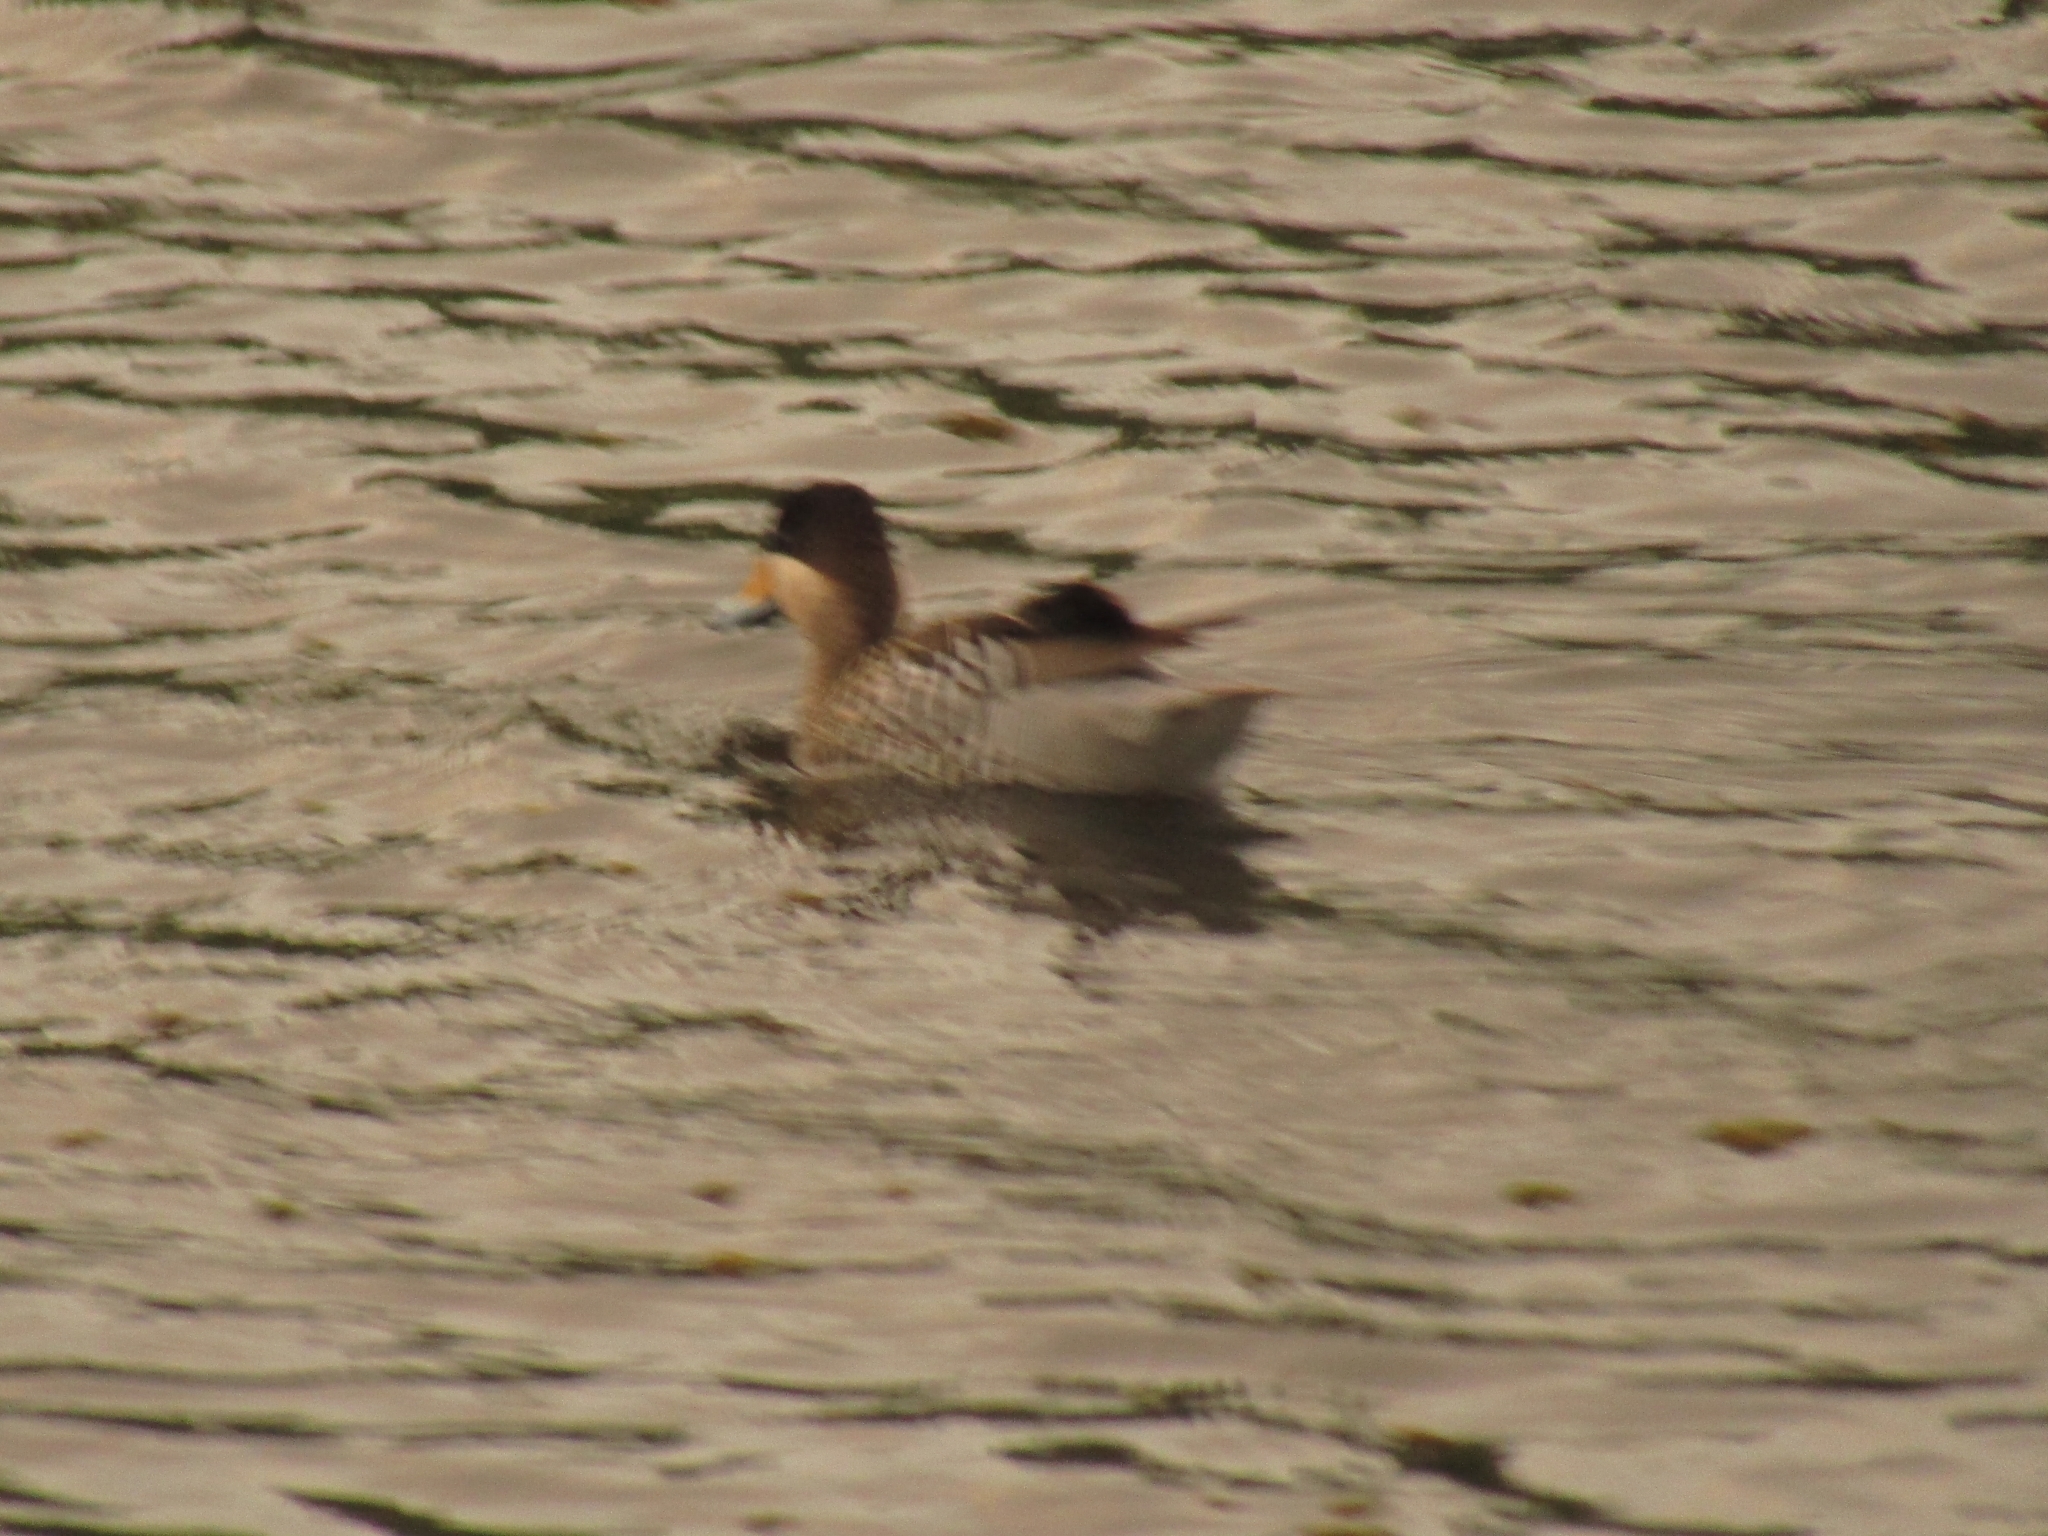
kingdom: Animalia
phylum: Chordata
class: Aves
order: Anseriformes
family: Anatidae
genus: Spatula
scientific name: Spatula versicolor
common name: Silver teal
